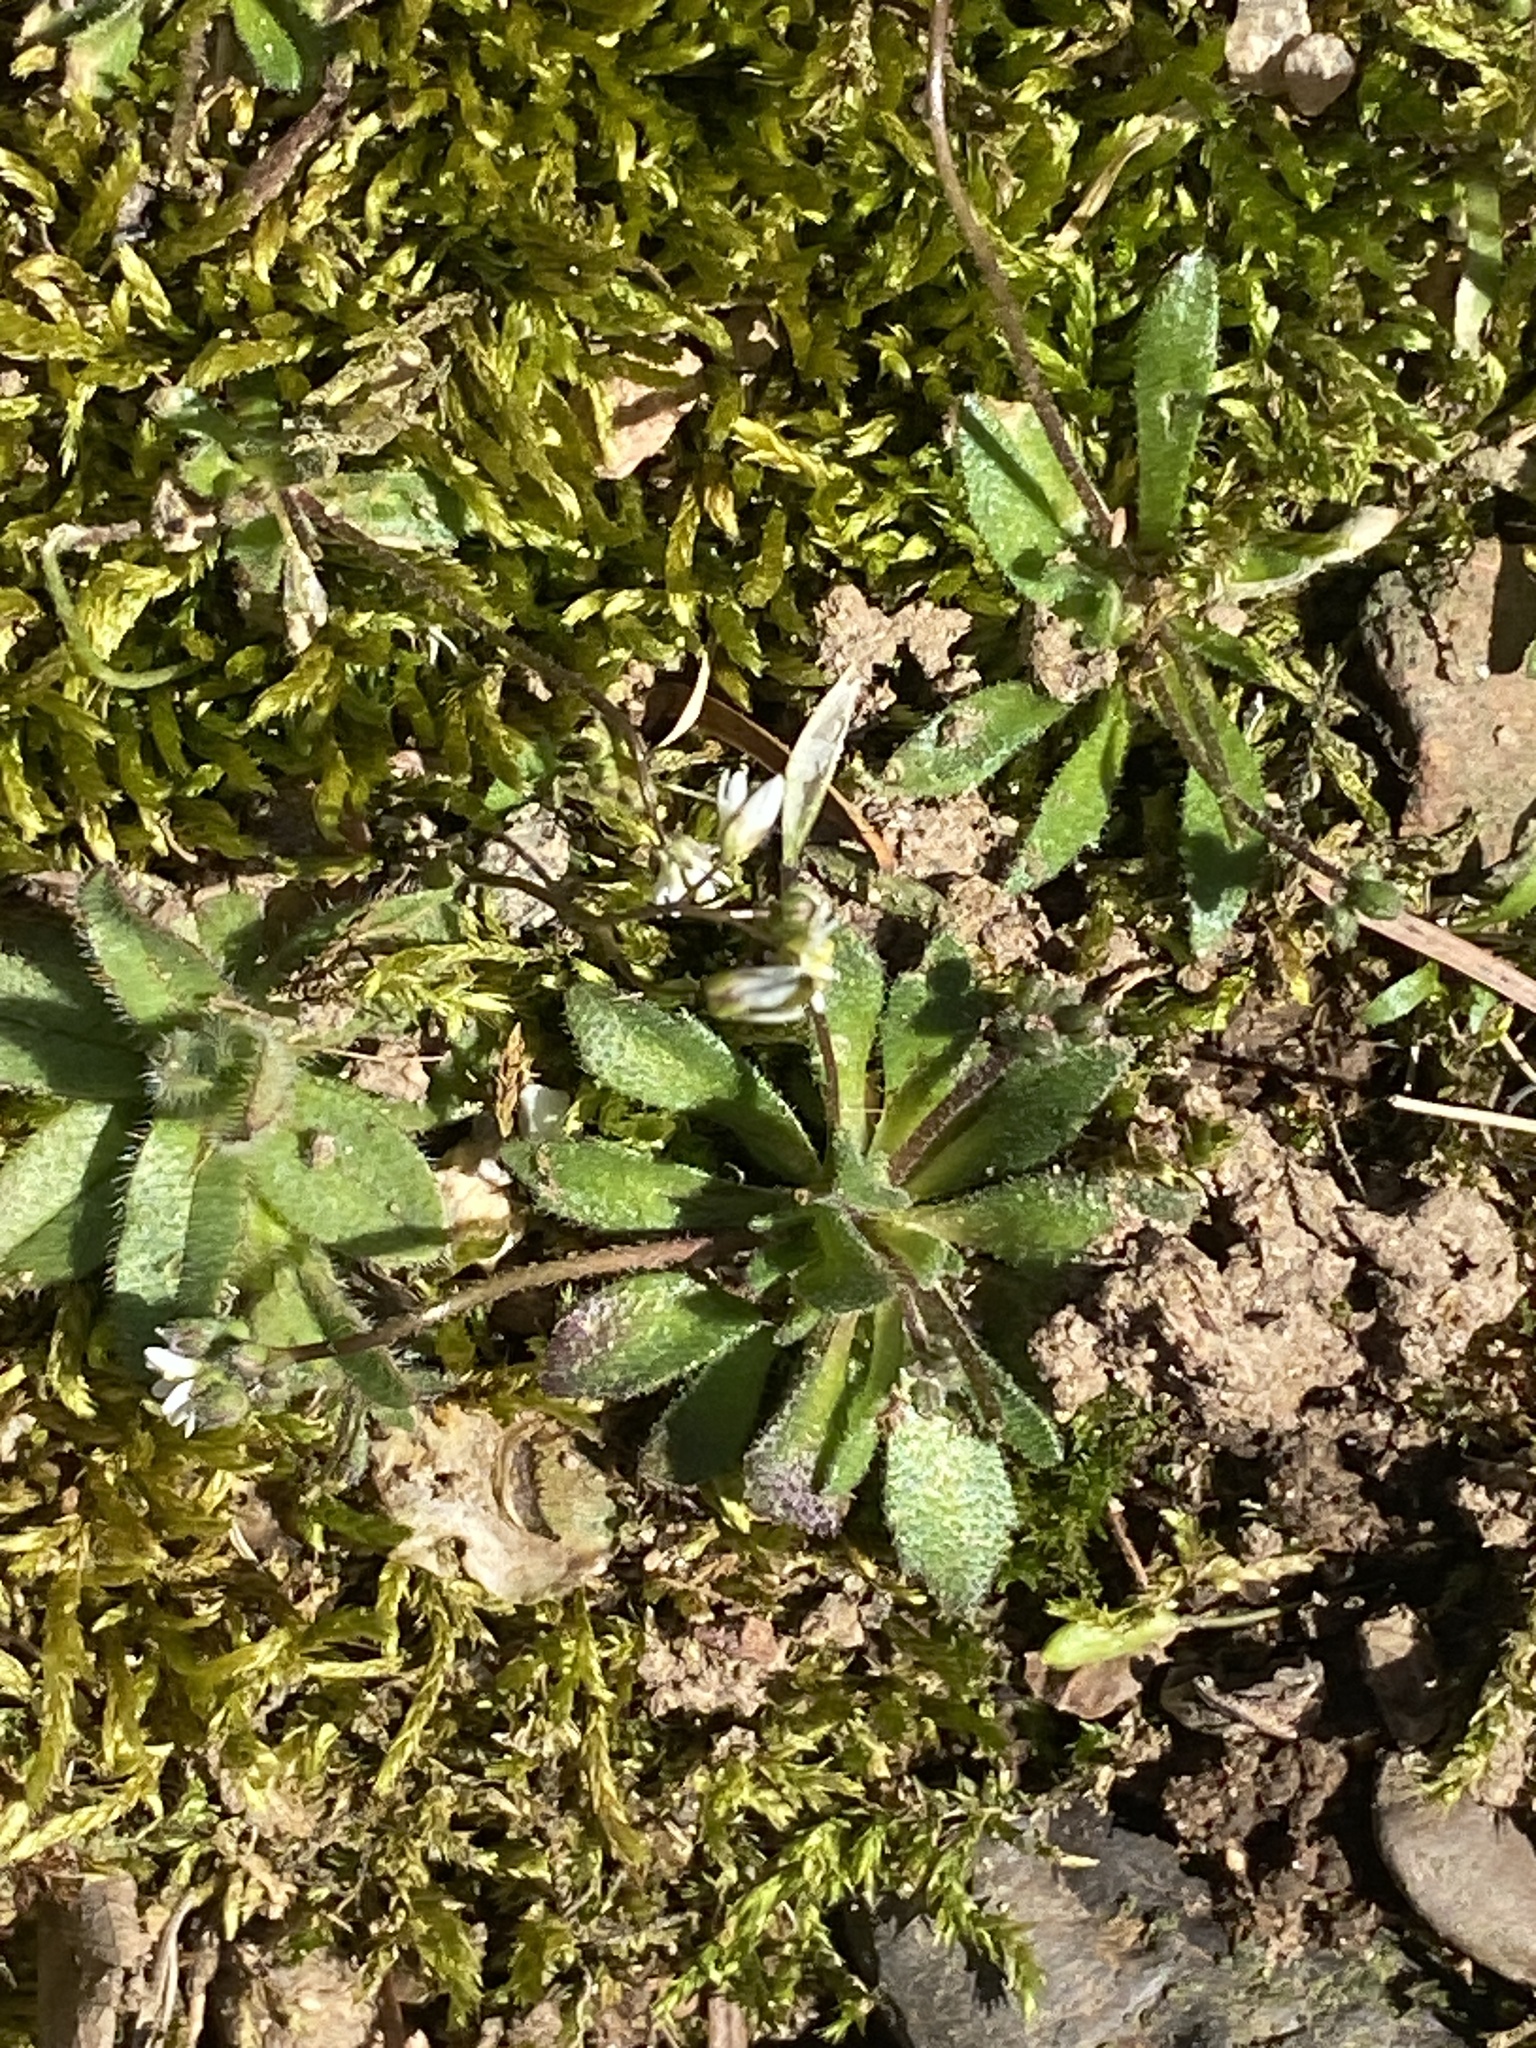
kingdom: Plantae
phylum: Tracheophyta
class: Magnoliopsida
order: Brassicales
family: Brassicaceae
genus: Draba
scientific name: Draba verna
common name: Spring draba
